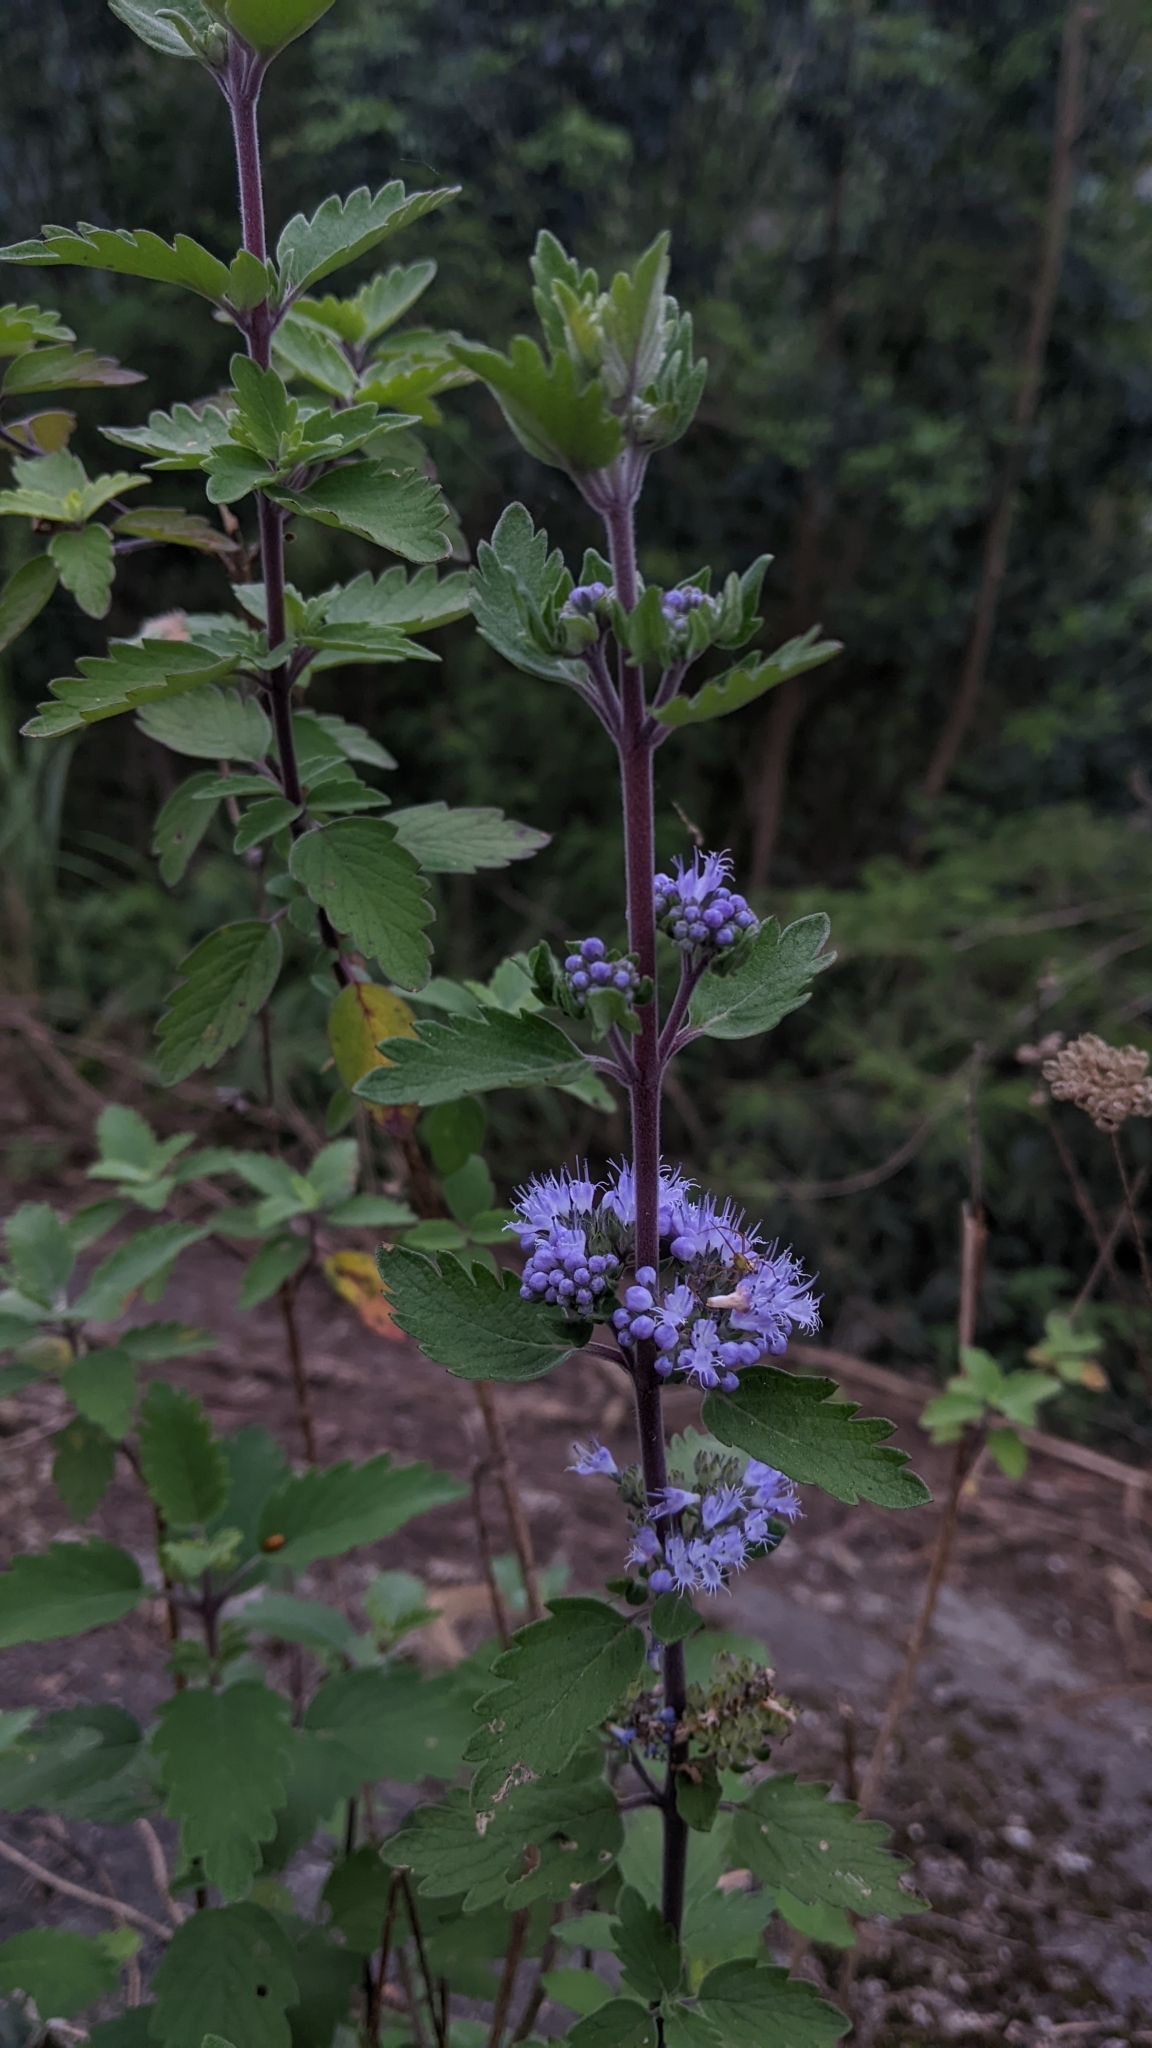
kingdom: Plantae
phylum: Tracheophyta
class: Magnoliopsida
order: Lamiales
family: Lamiaceae
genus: Caryopteris
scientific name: Caryopteris incana
